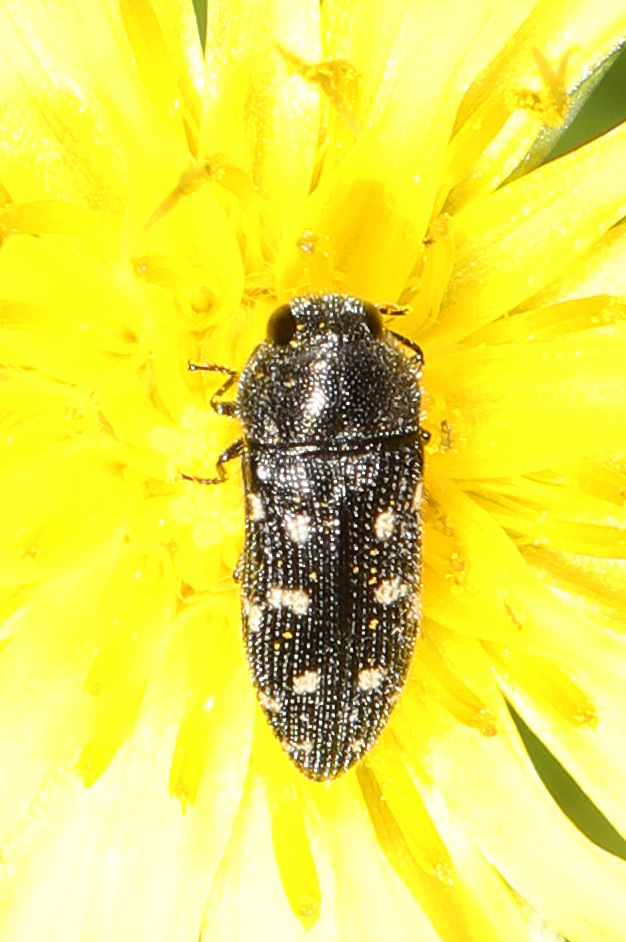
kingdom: Animalia
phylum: Arthropoda
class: Insecta
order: Coleoptera
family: Buprestidae
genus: Acmaeodera
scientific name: Acmaeodera tubulus
